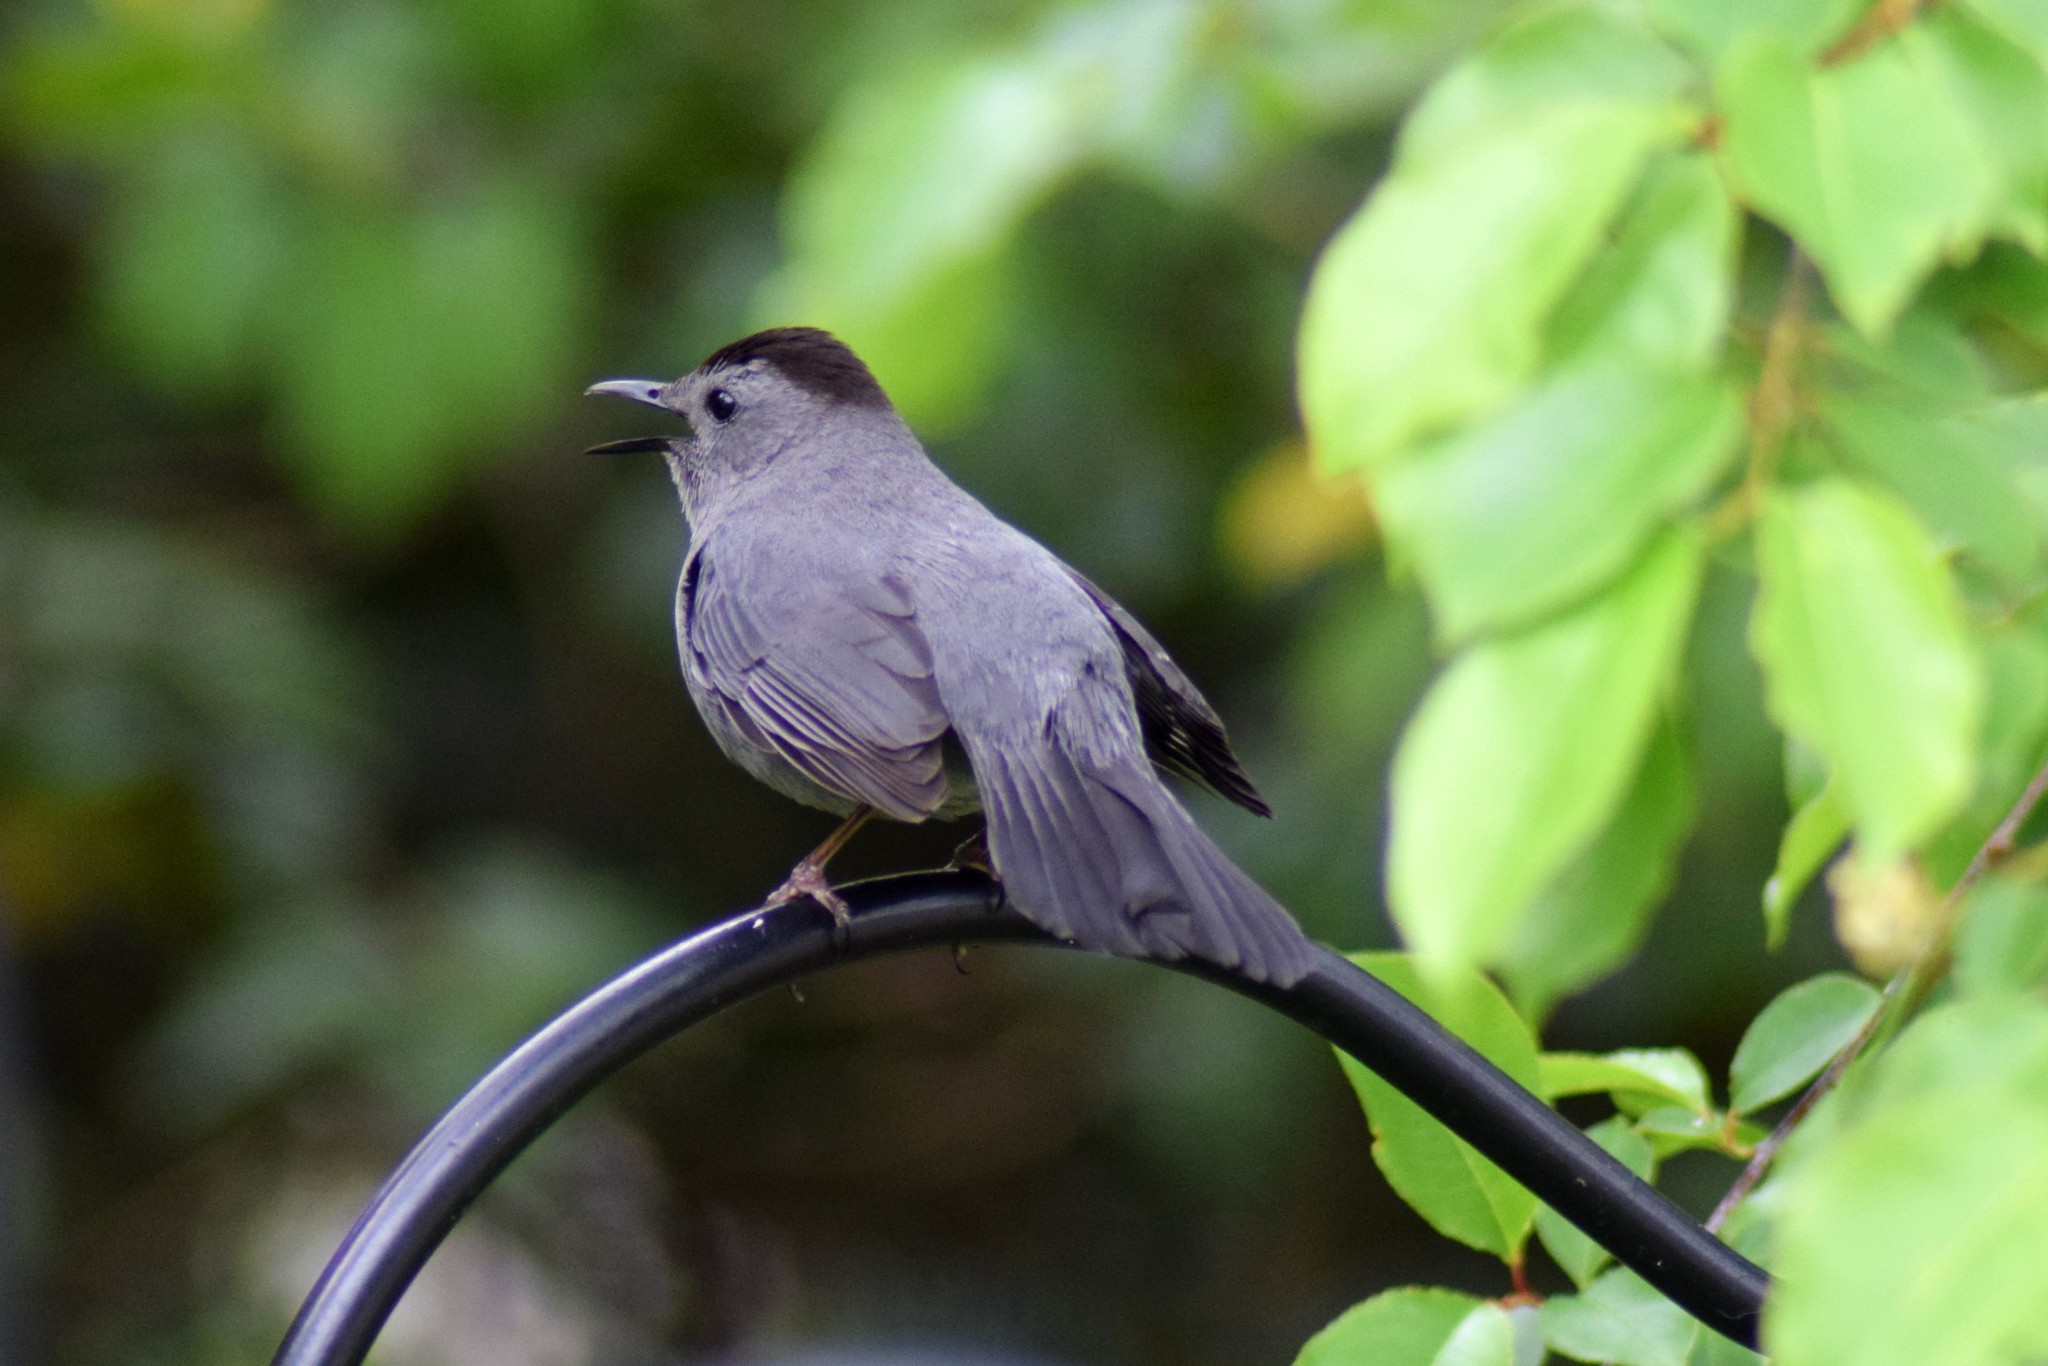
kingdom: Animalia
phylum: Chordata
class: Aves
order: Passeriformes
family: Mimidae
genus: Dumetella
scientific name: Dumetella carolinensis
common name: Gray catbird
